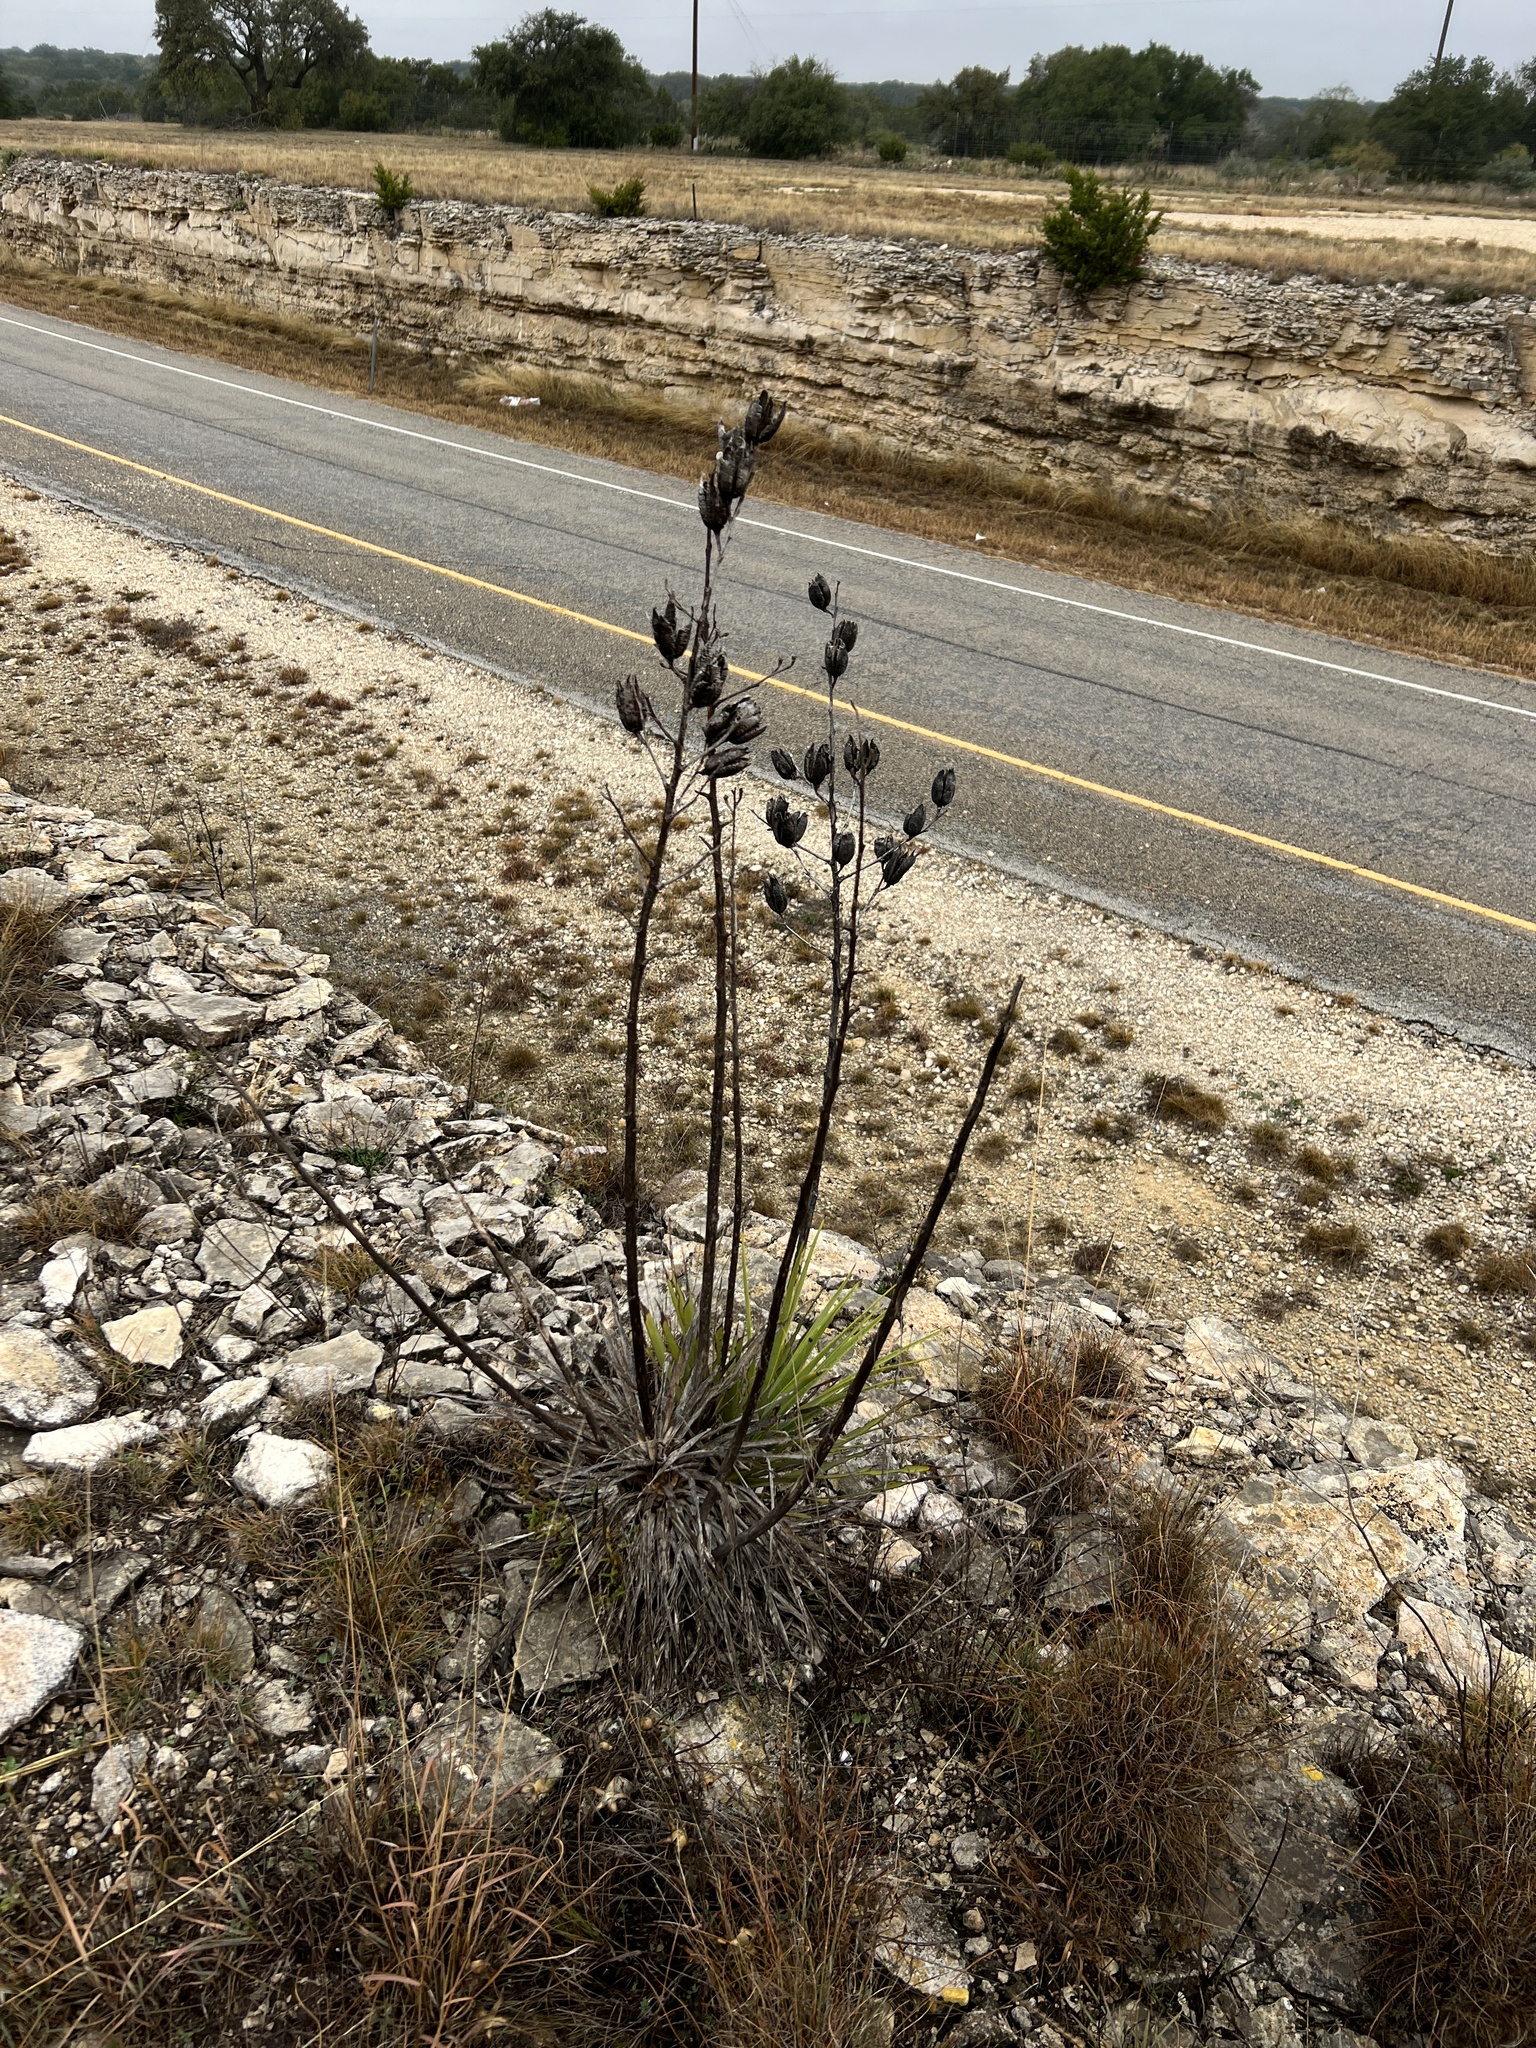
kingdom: Plantae
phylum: Tracheophyta
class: Liliopsida
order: Asparagales
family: Asparagaceae
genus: Yucca
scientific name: Yucca reverchonii
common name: San angelo yucca
